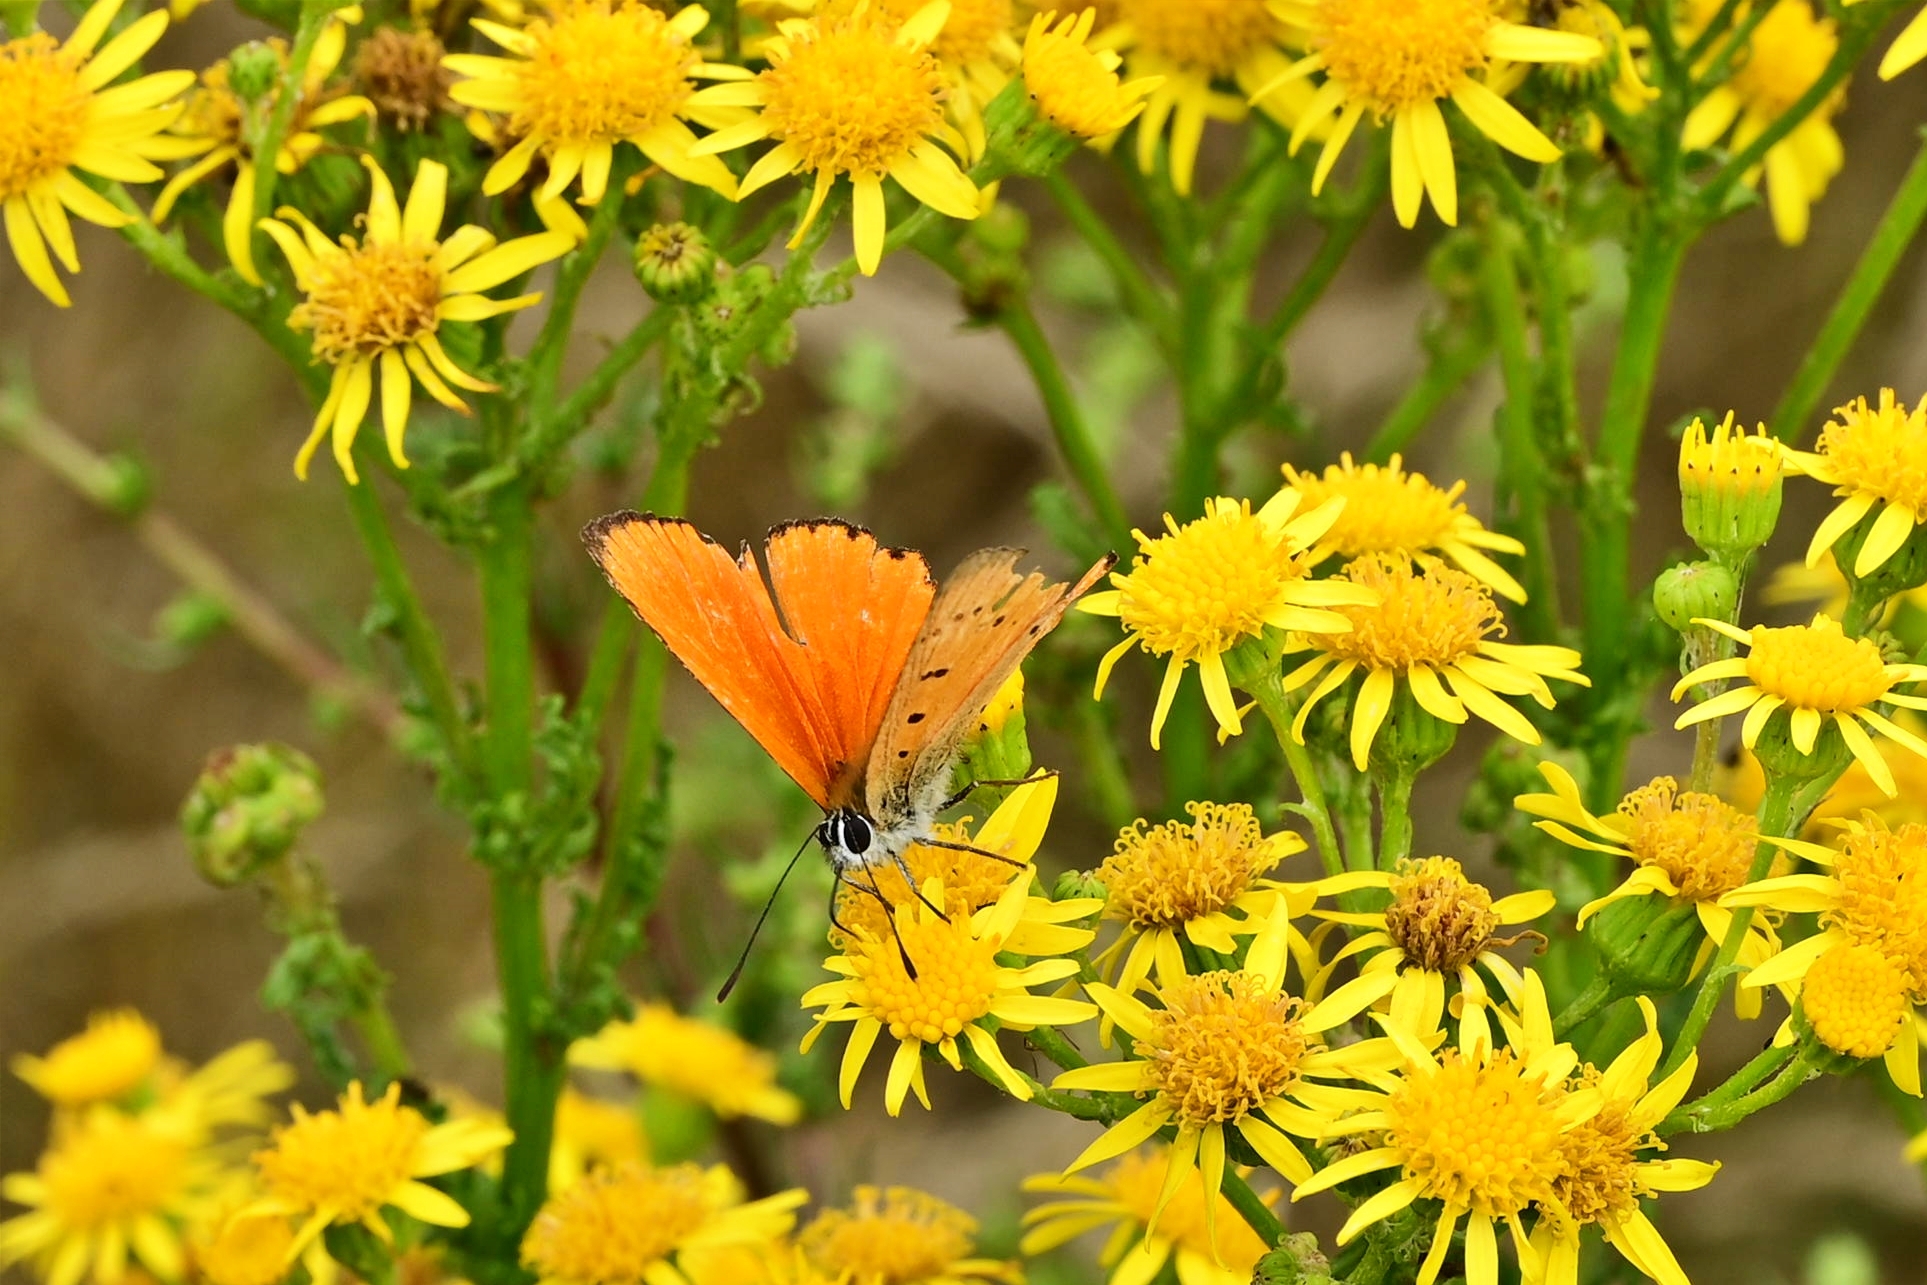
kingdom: Animalia
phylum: Arthropoda
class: Insecta
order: Lepidoptera
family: Lycaenidae
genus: Lycaena
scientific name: Lycaena virgaureae
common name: Scarce copper
